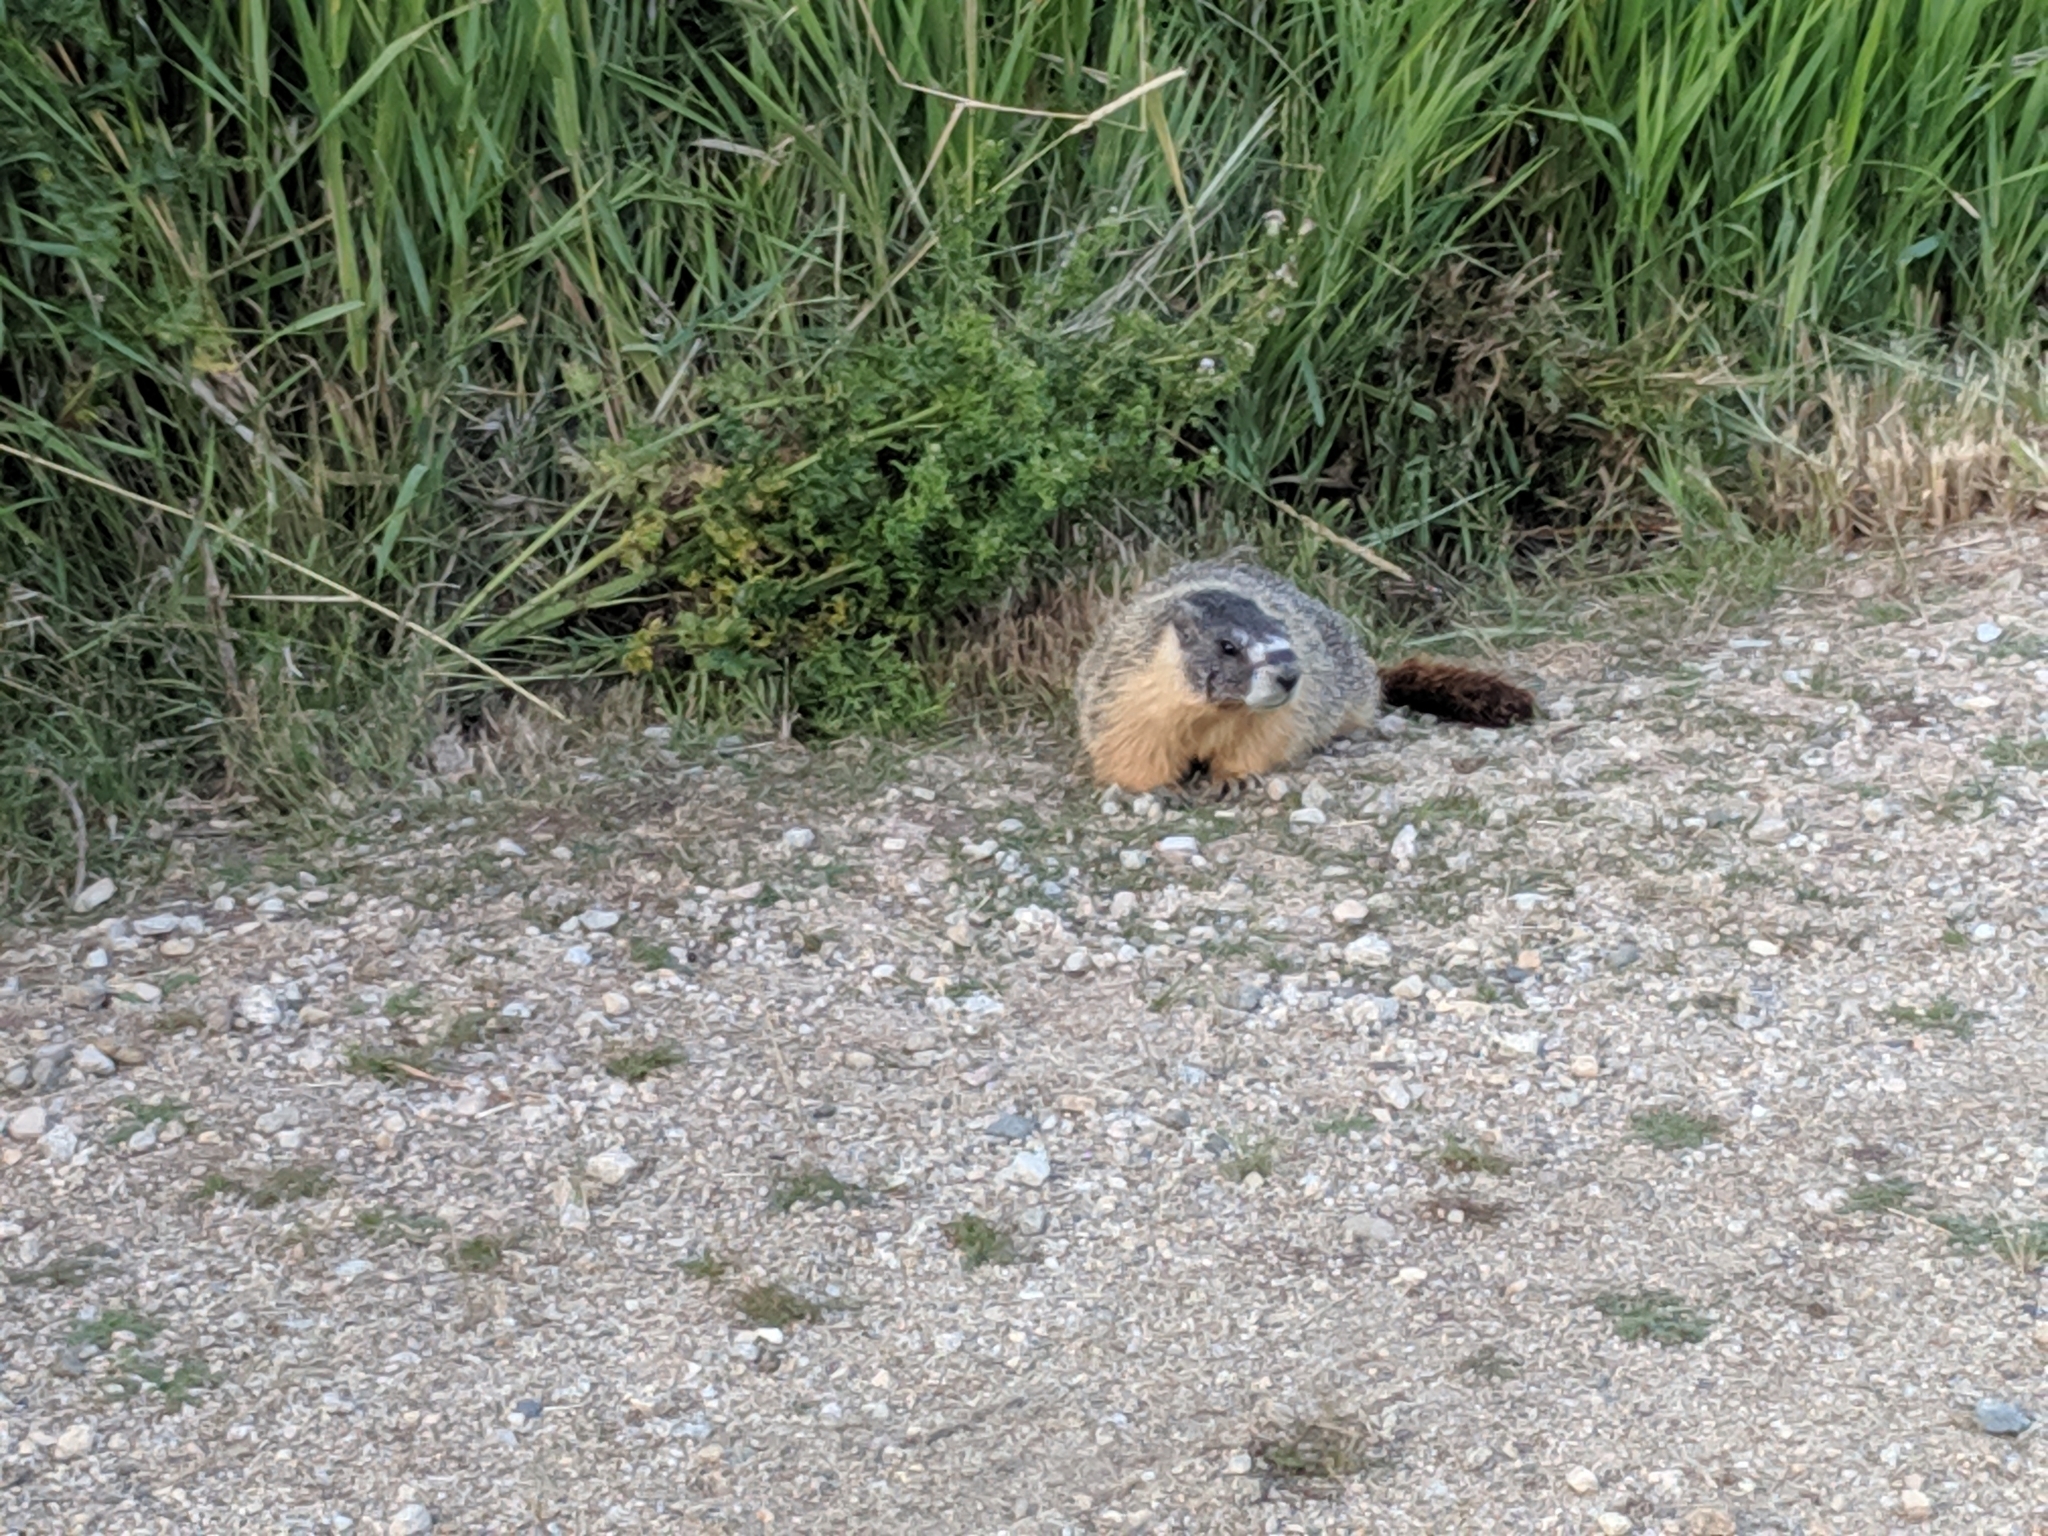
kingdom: Animalia
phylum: Chordata
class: Mammalia
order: Rodentia
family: Sciuridae
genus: Marmota
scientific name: Marmota flaviventris
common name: Yellow-bellied marmot
